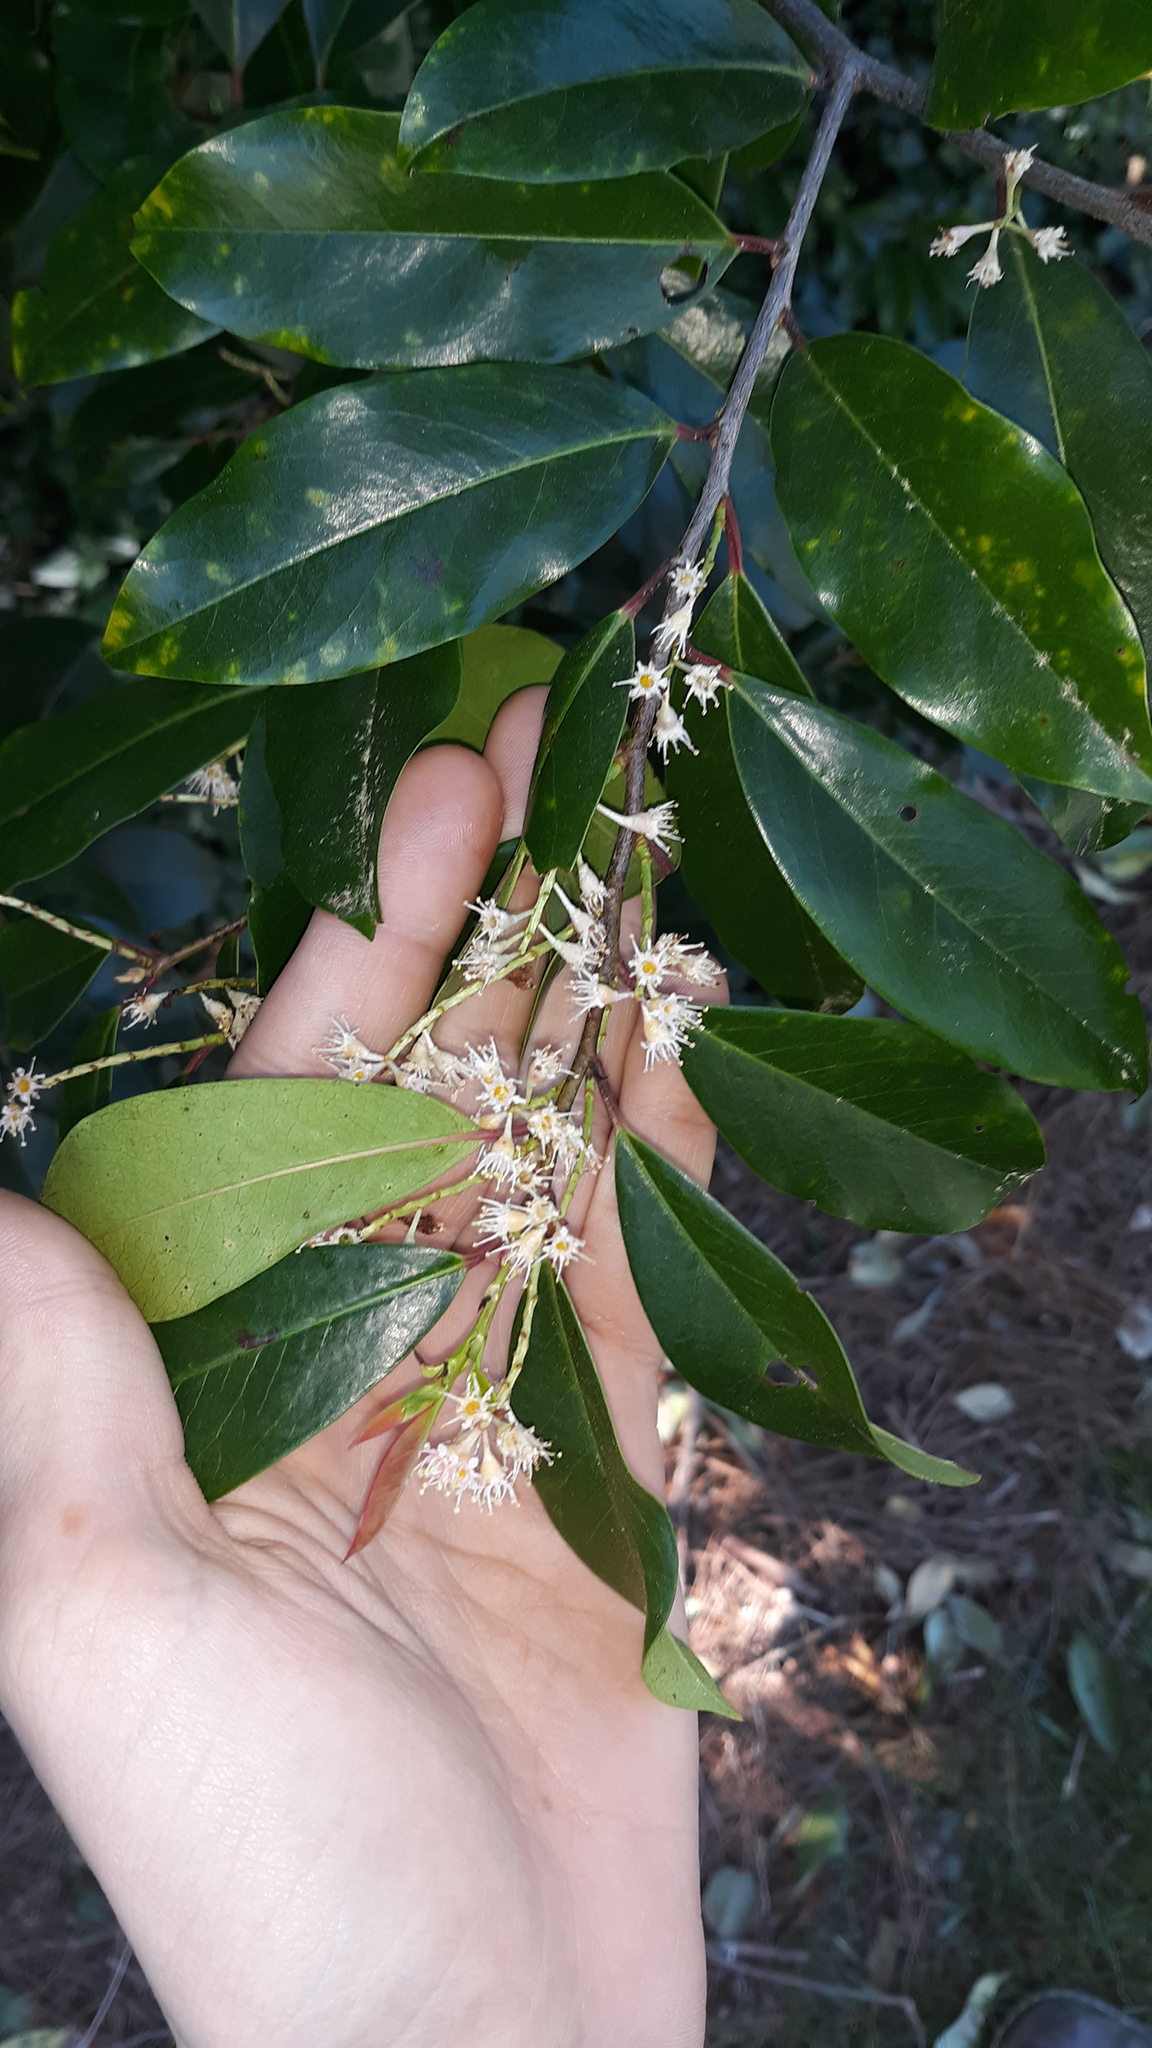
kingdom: Plantae
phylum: Tracheophyta
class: Magnoliopsida
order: Rosales
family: Rosaceae
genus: Prunus
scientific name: Prunus caroliniana
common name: Carolina laurel cherry
